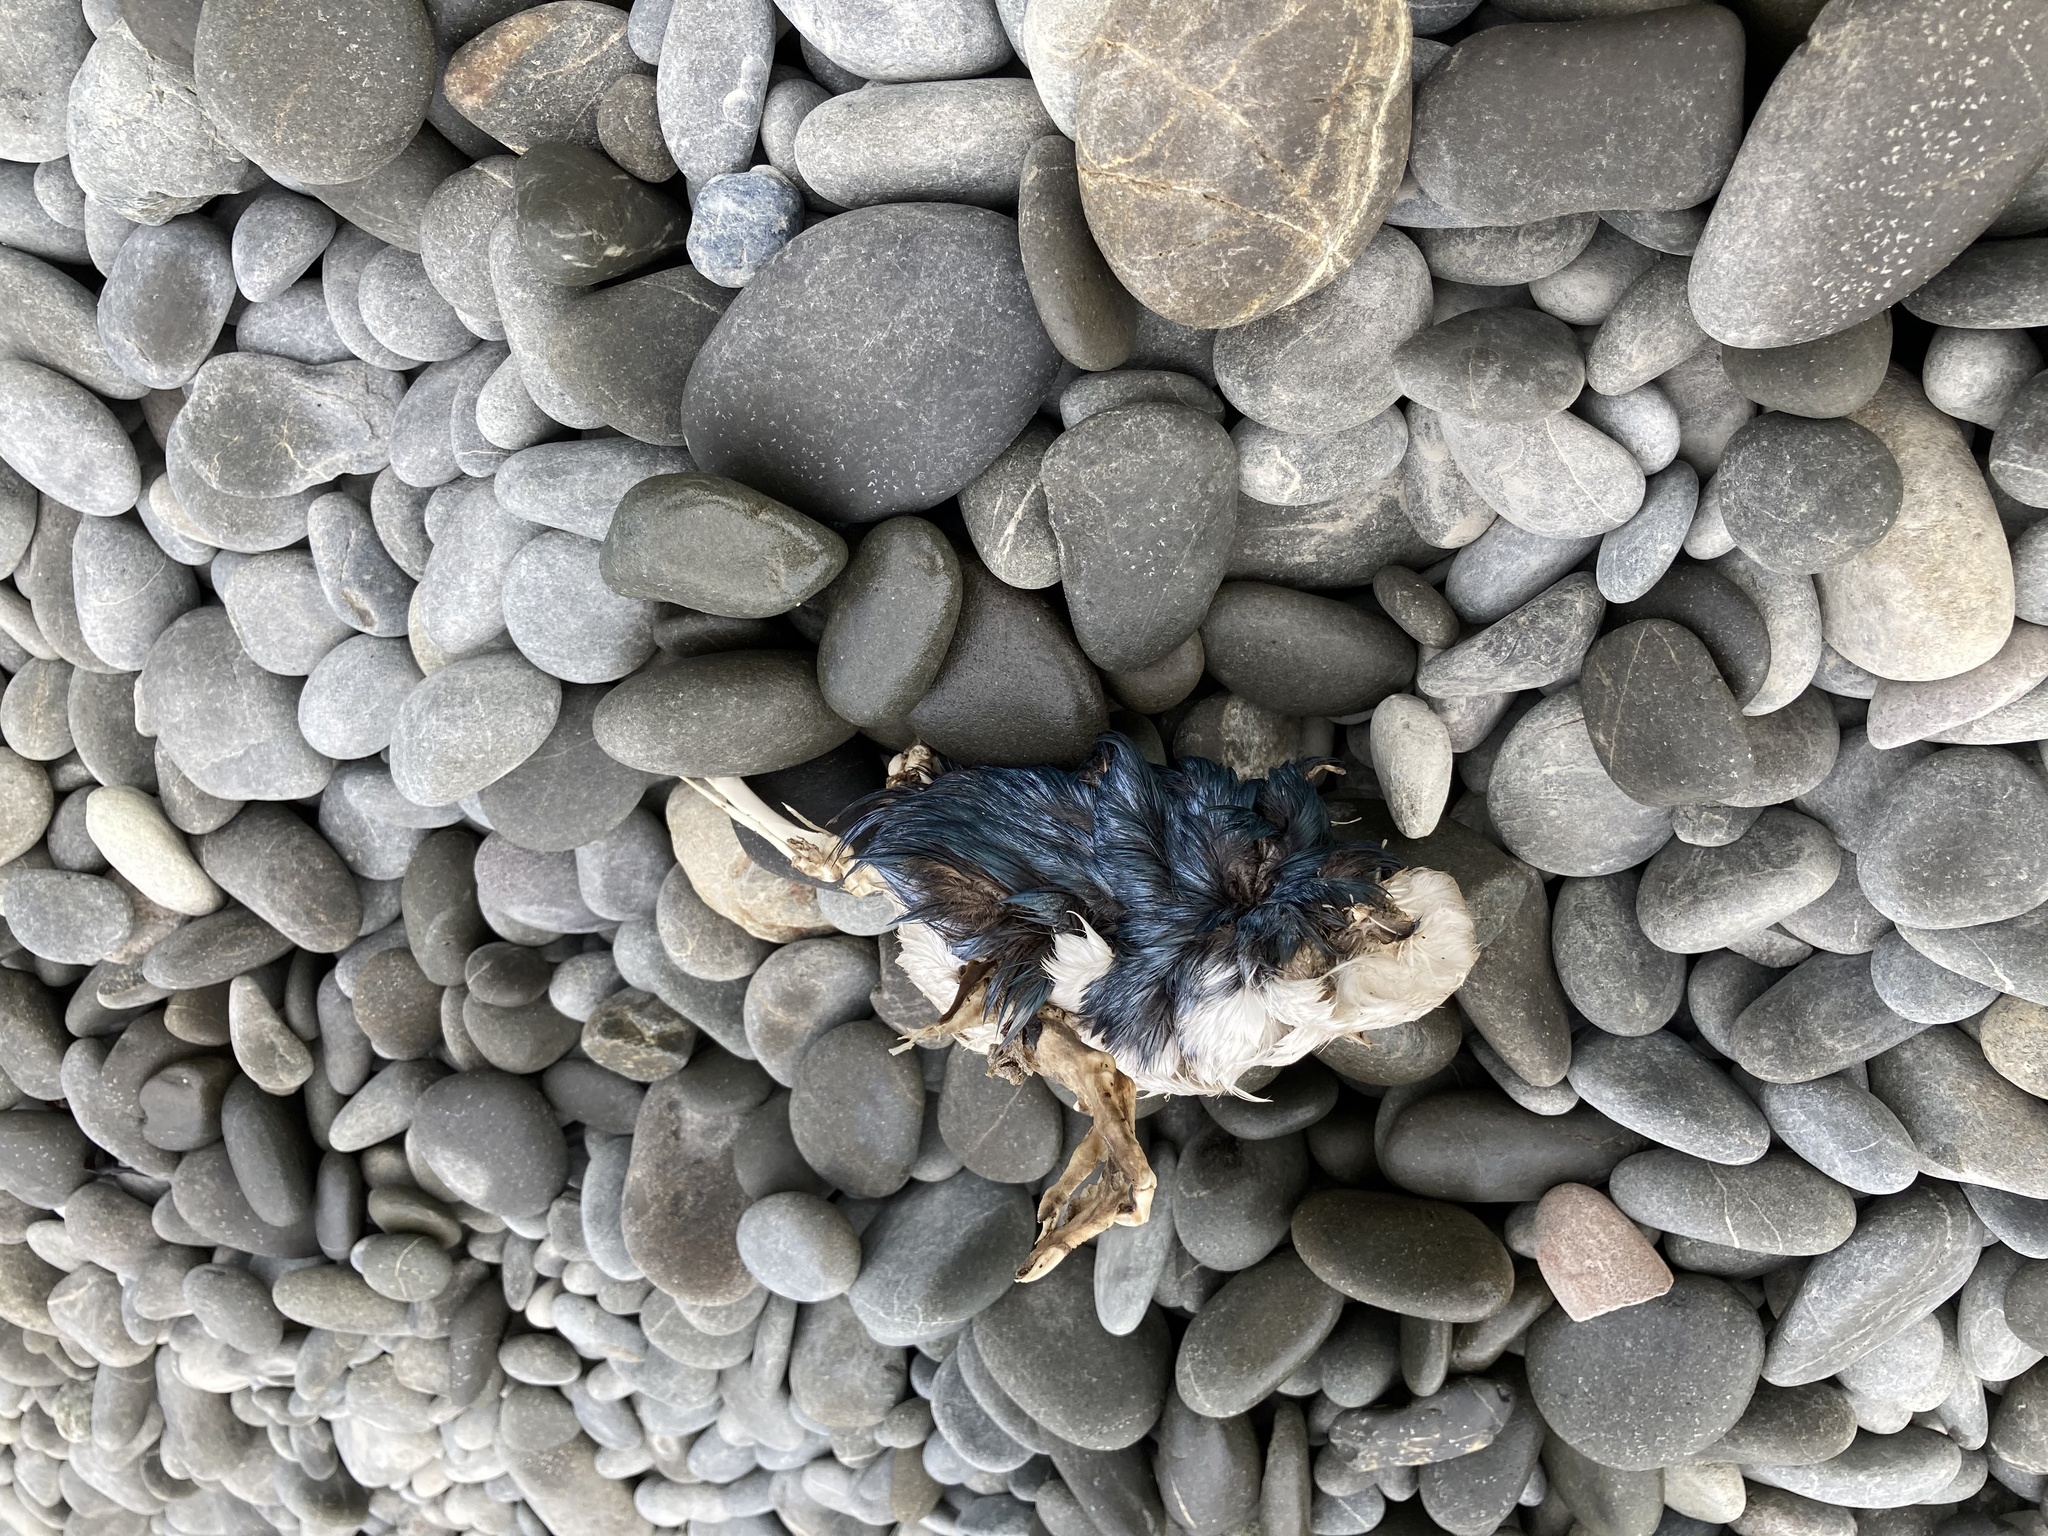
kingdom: Animalia
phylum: Chordata
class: Aves
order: Sphenisciformes
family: Spheniscidae
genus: Eudyptula
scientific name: Eudyptula minor
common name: Little penguin
